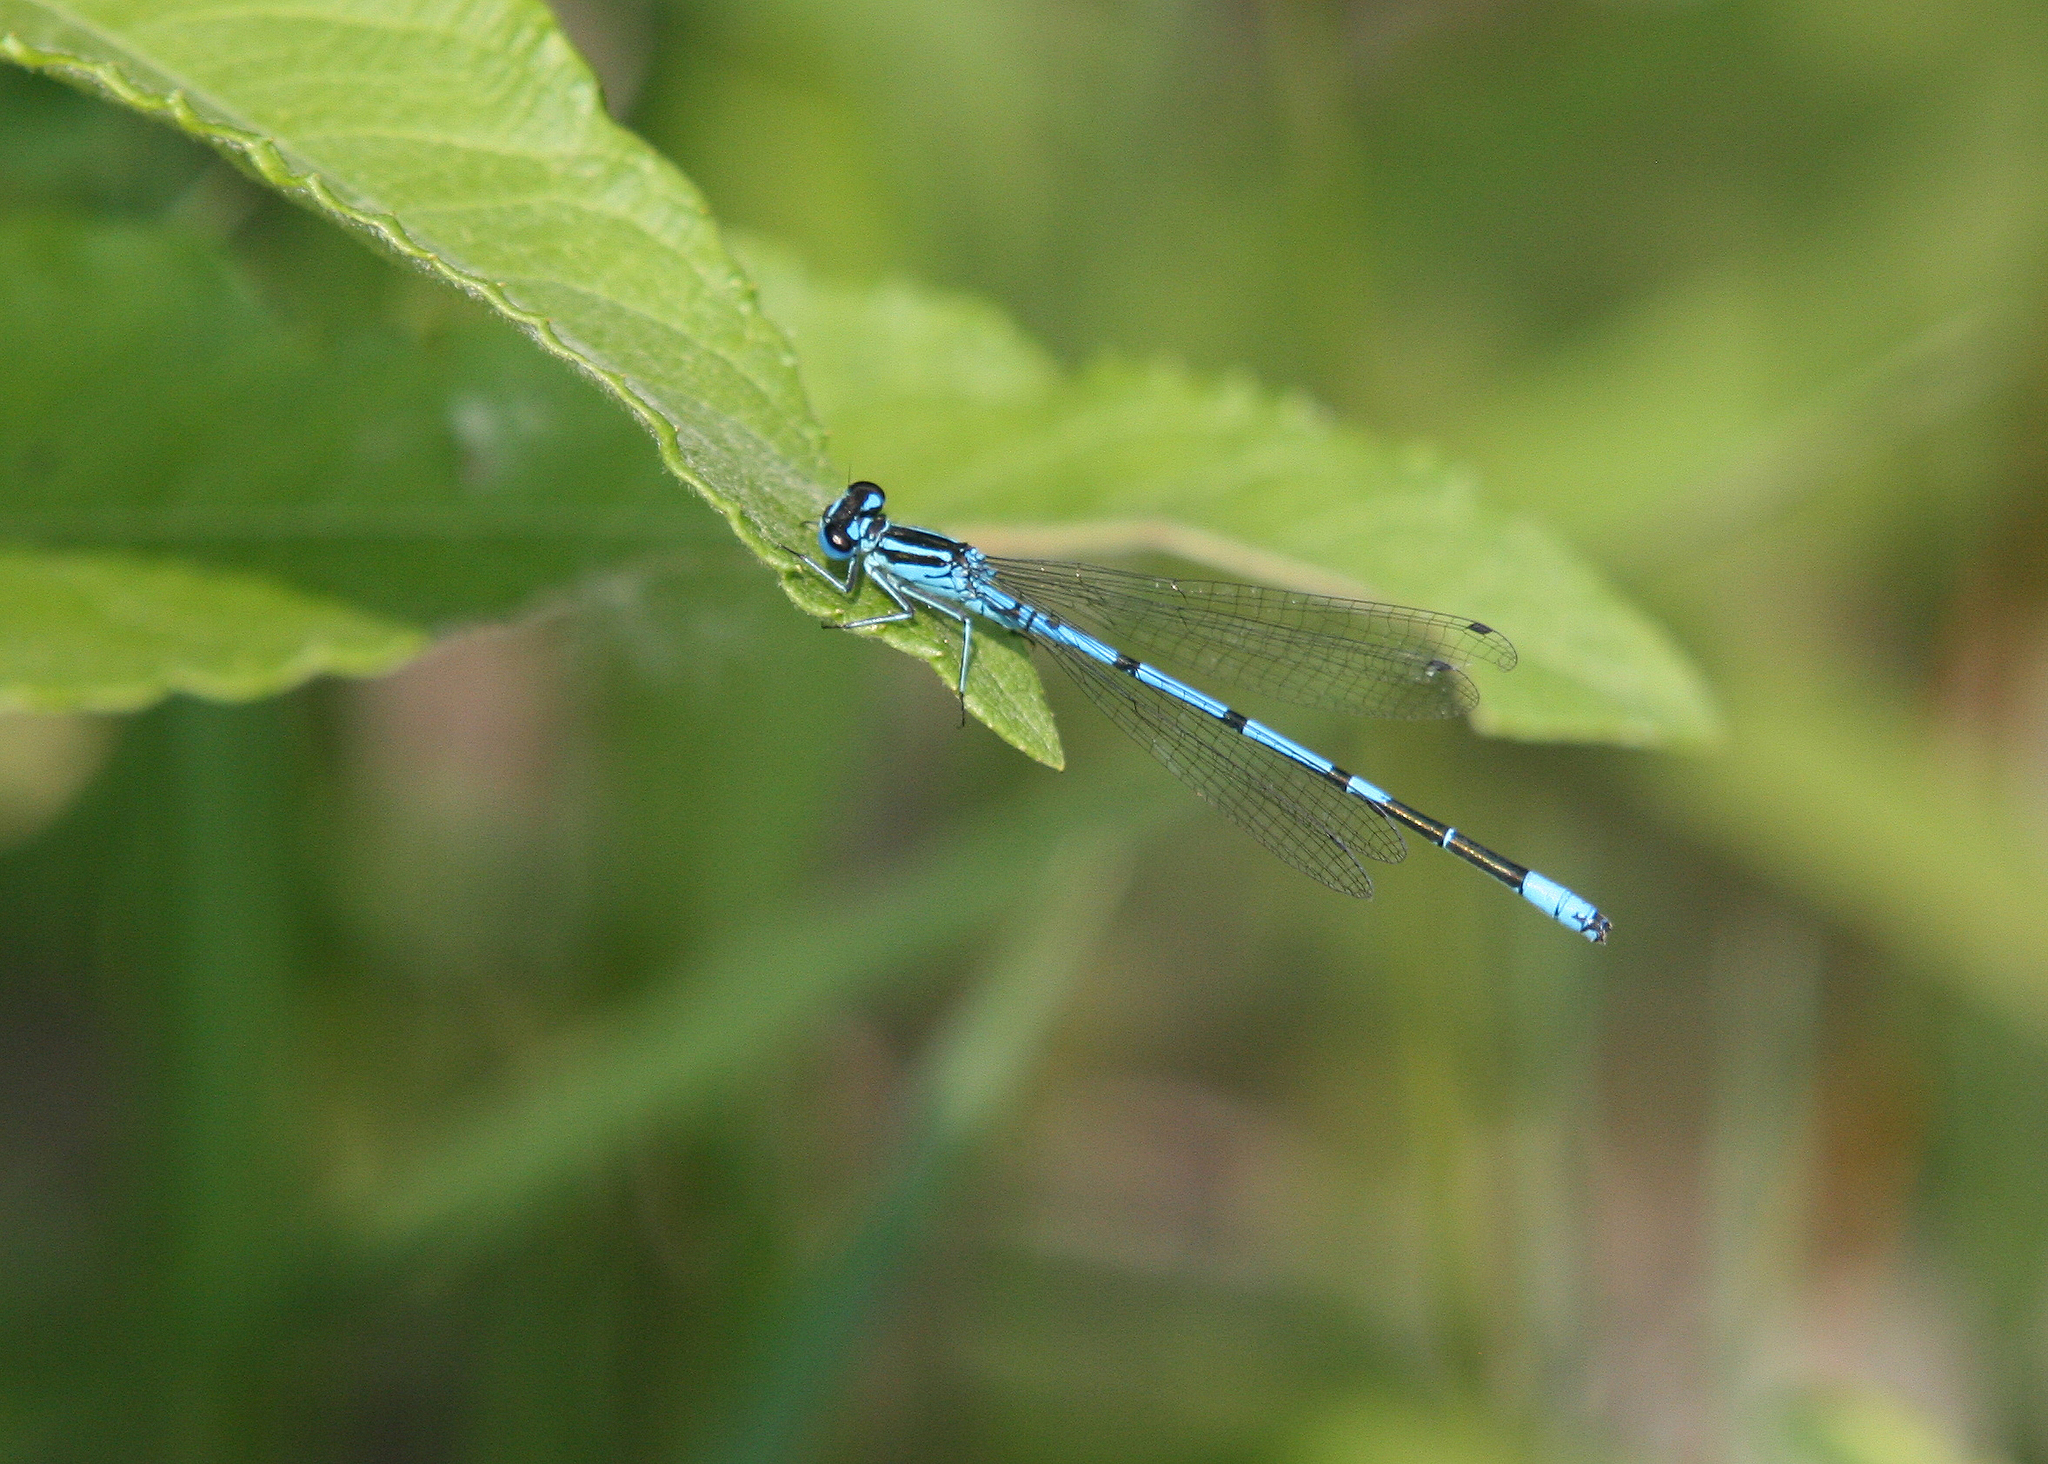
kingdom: Animalia
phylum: Arthropoda
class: Insecta
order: Odonata
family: Coenagrionidae
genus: Coenagrion
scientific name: Coenagrion puella
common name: Azure damselfly
